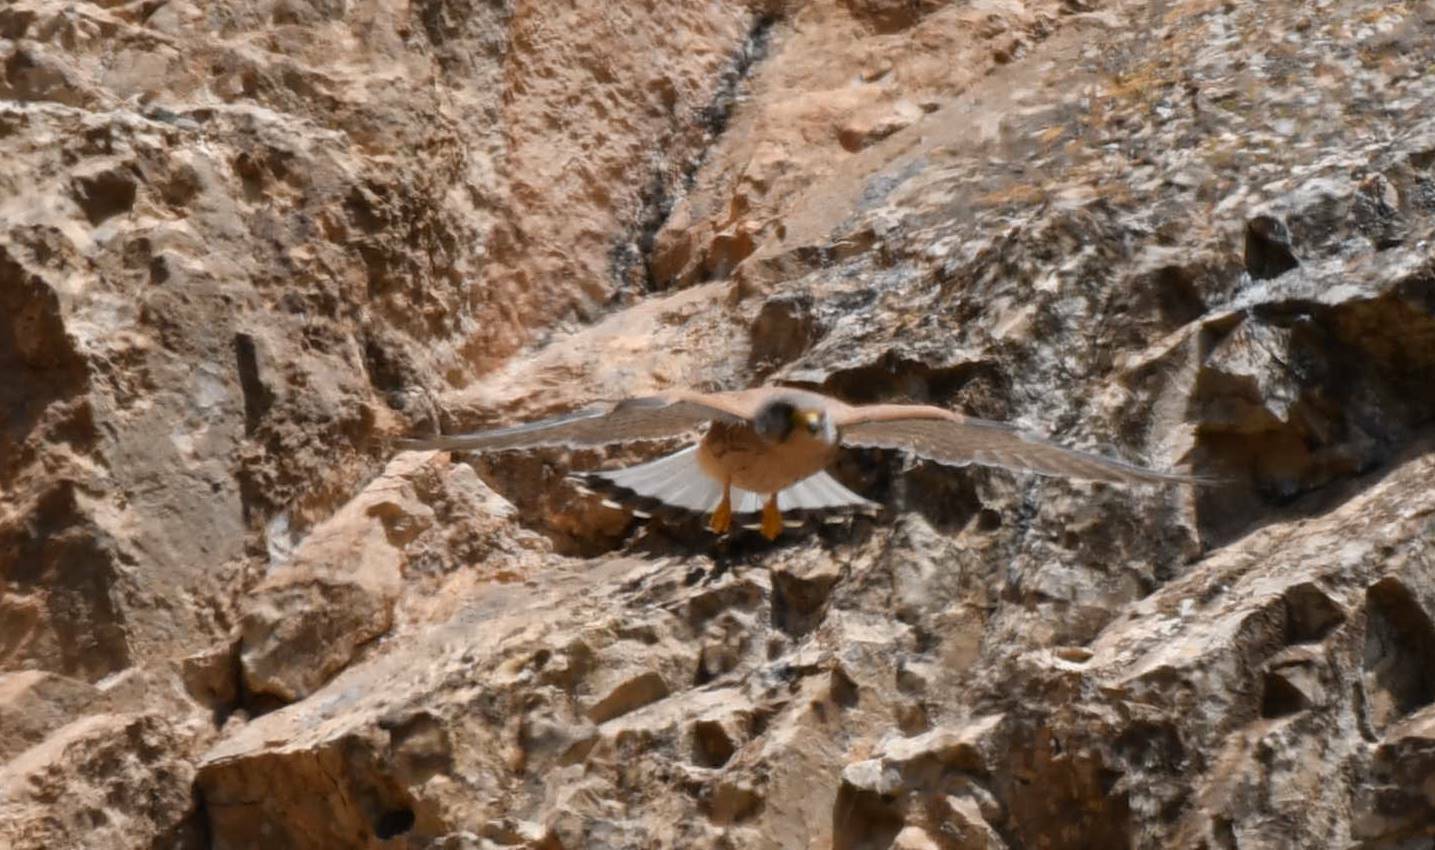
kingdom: Animalia
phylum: Chordata
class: Aves
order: Falconiformes
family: Falconidae
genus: Falco
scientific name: Falco naumanni
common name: Lesser kestrel
